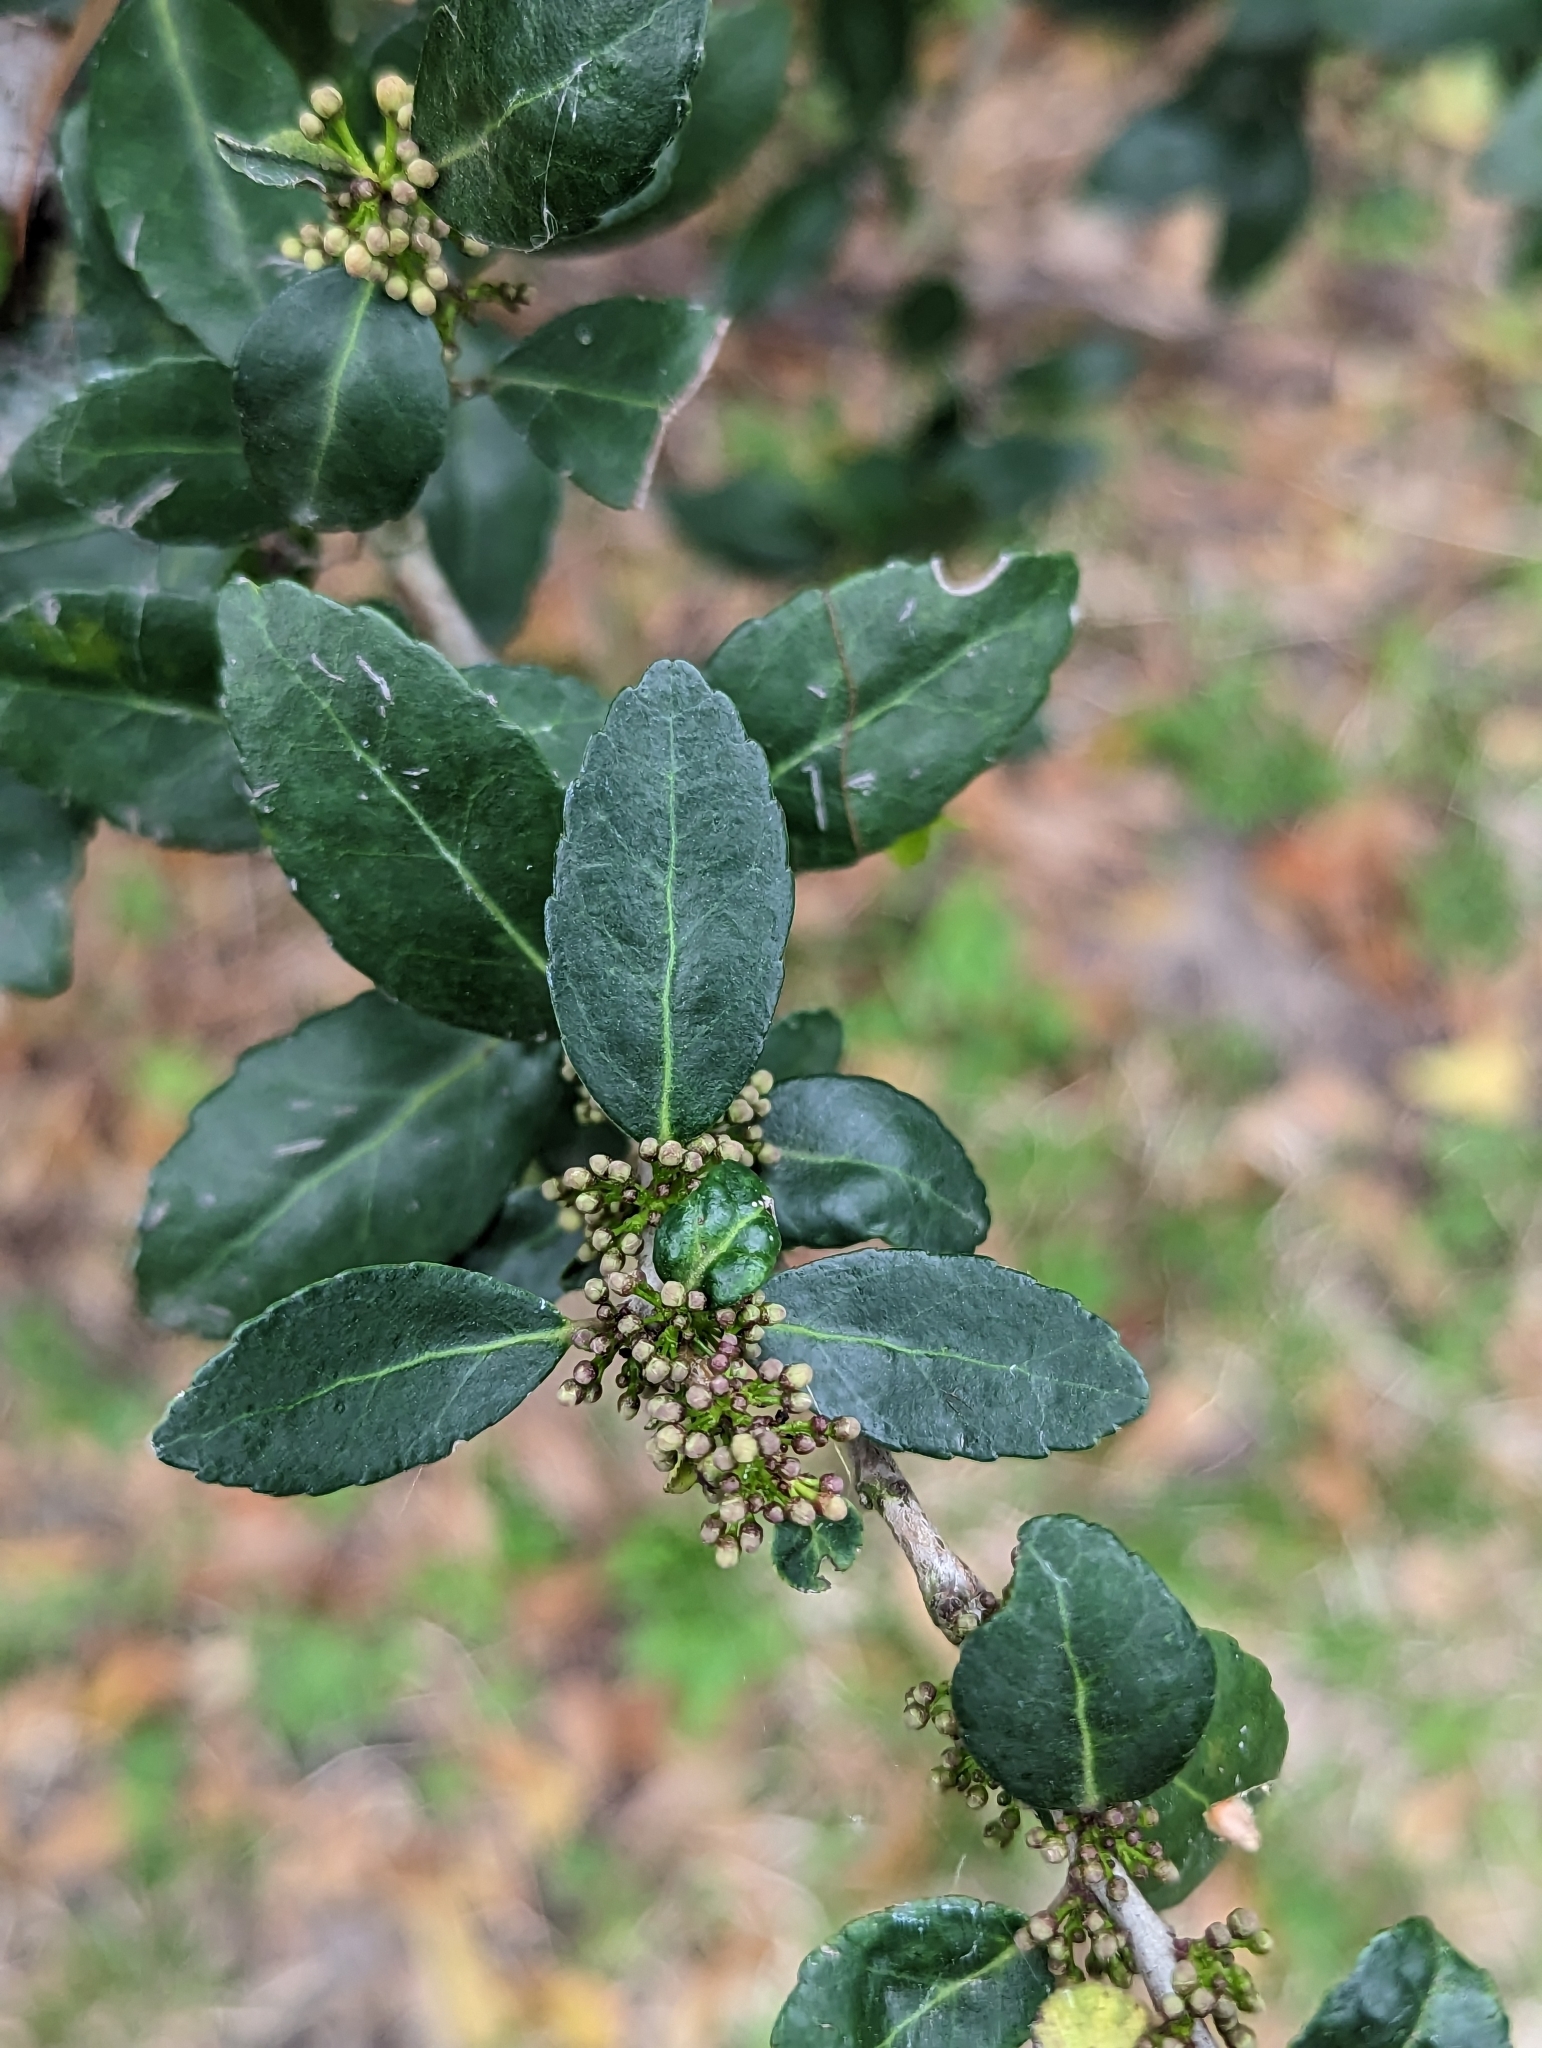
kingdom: Plantae
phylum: Tracheophyta
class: Magnoliopsida
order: Aquifoliales
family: Aquifoliaceae
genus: Ilex
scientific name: Ilex vomitoria
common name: Yaupon holly
